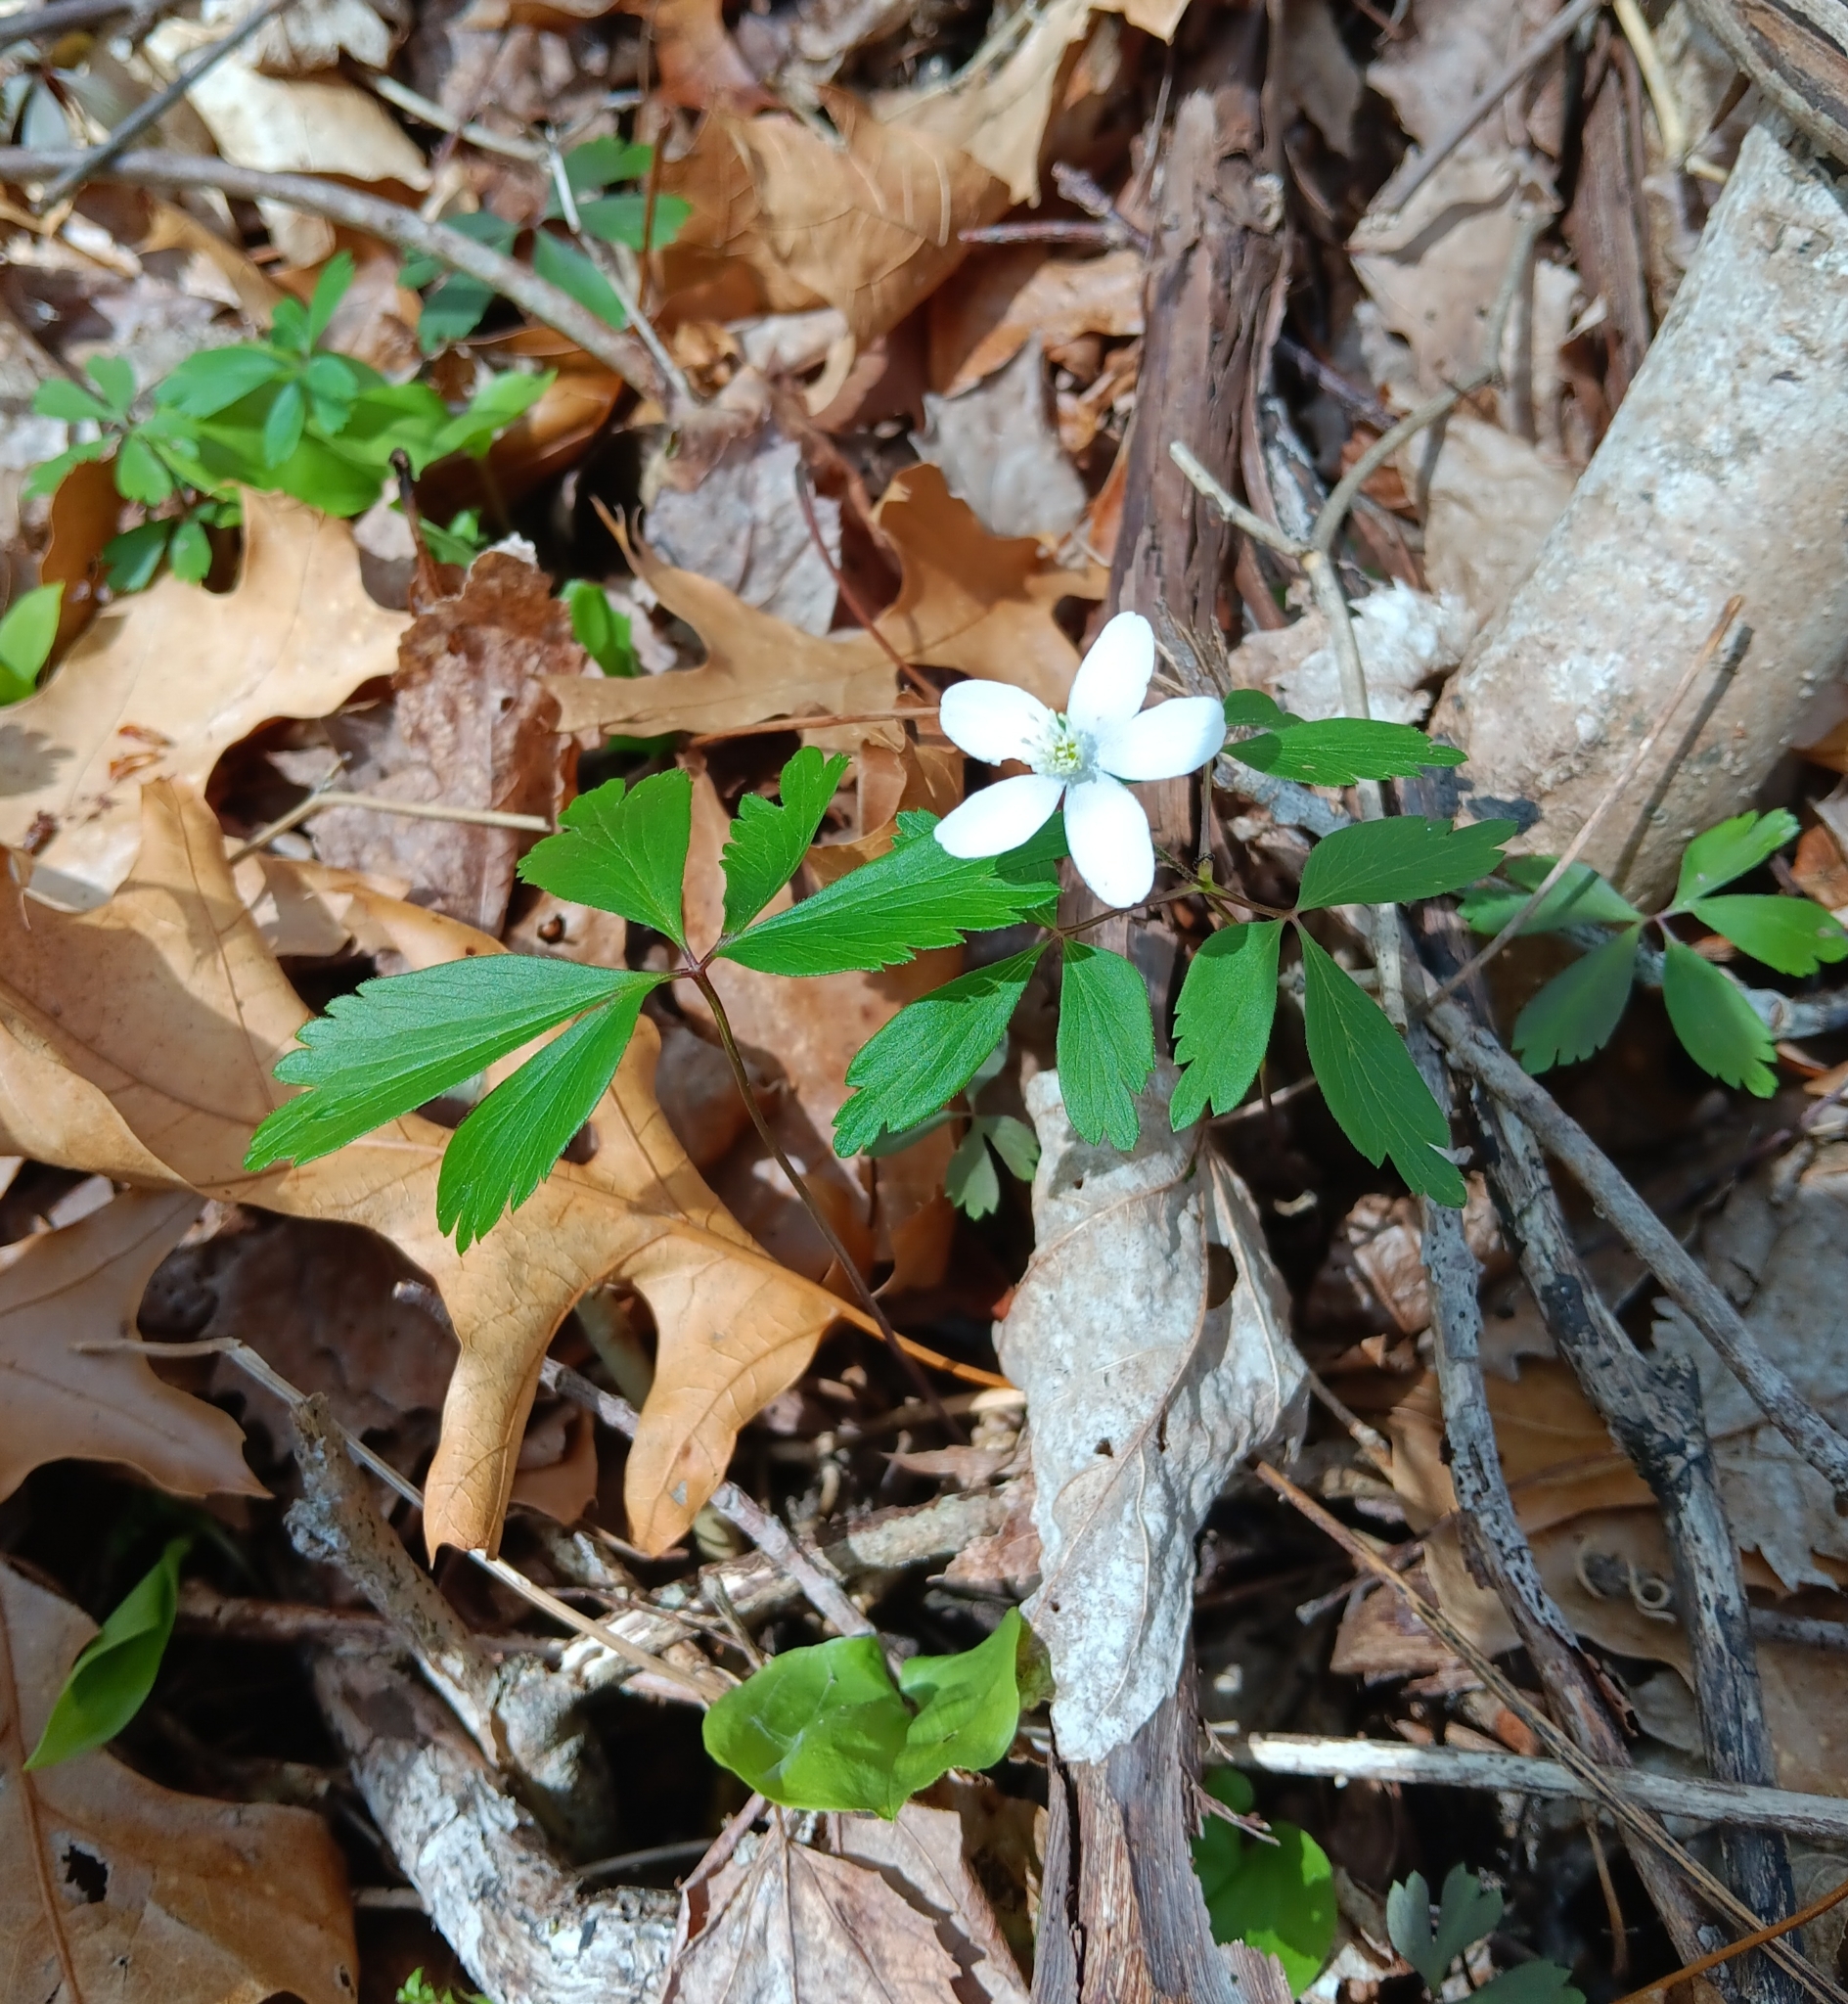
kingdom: Plantae
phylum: Tracheophyta
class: Magnoliopsida
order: Ranunculales
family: Ranunculaceae
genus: Anemone
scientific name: Anemone quinquefolia
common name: Wood anemone
